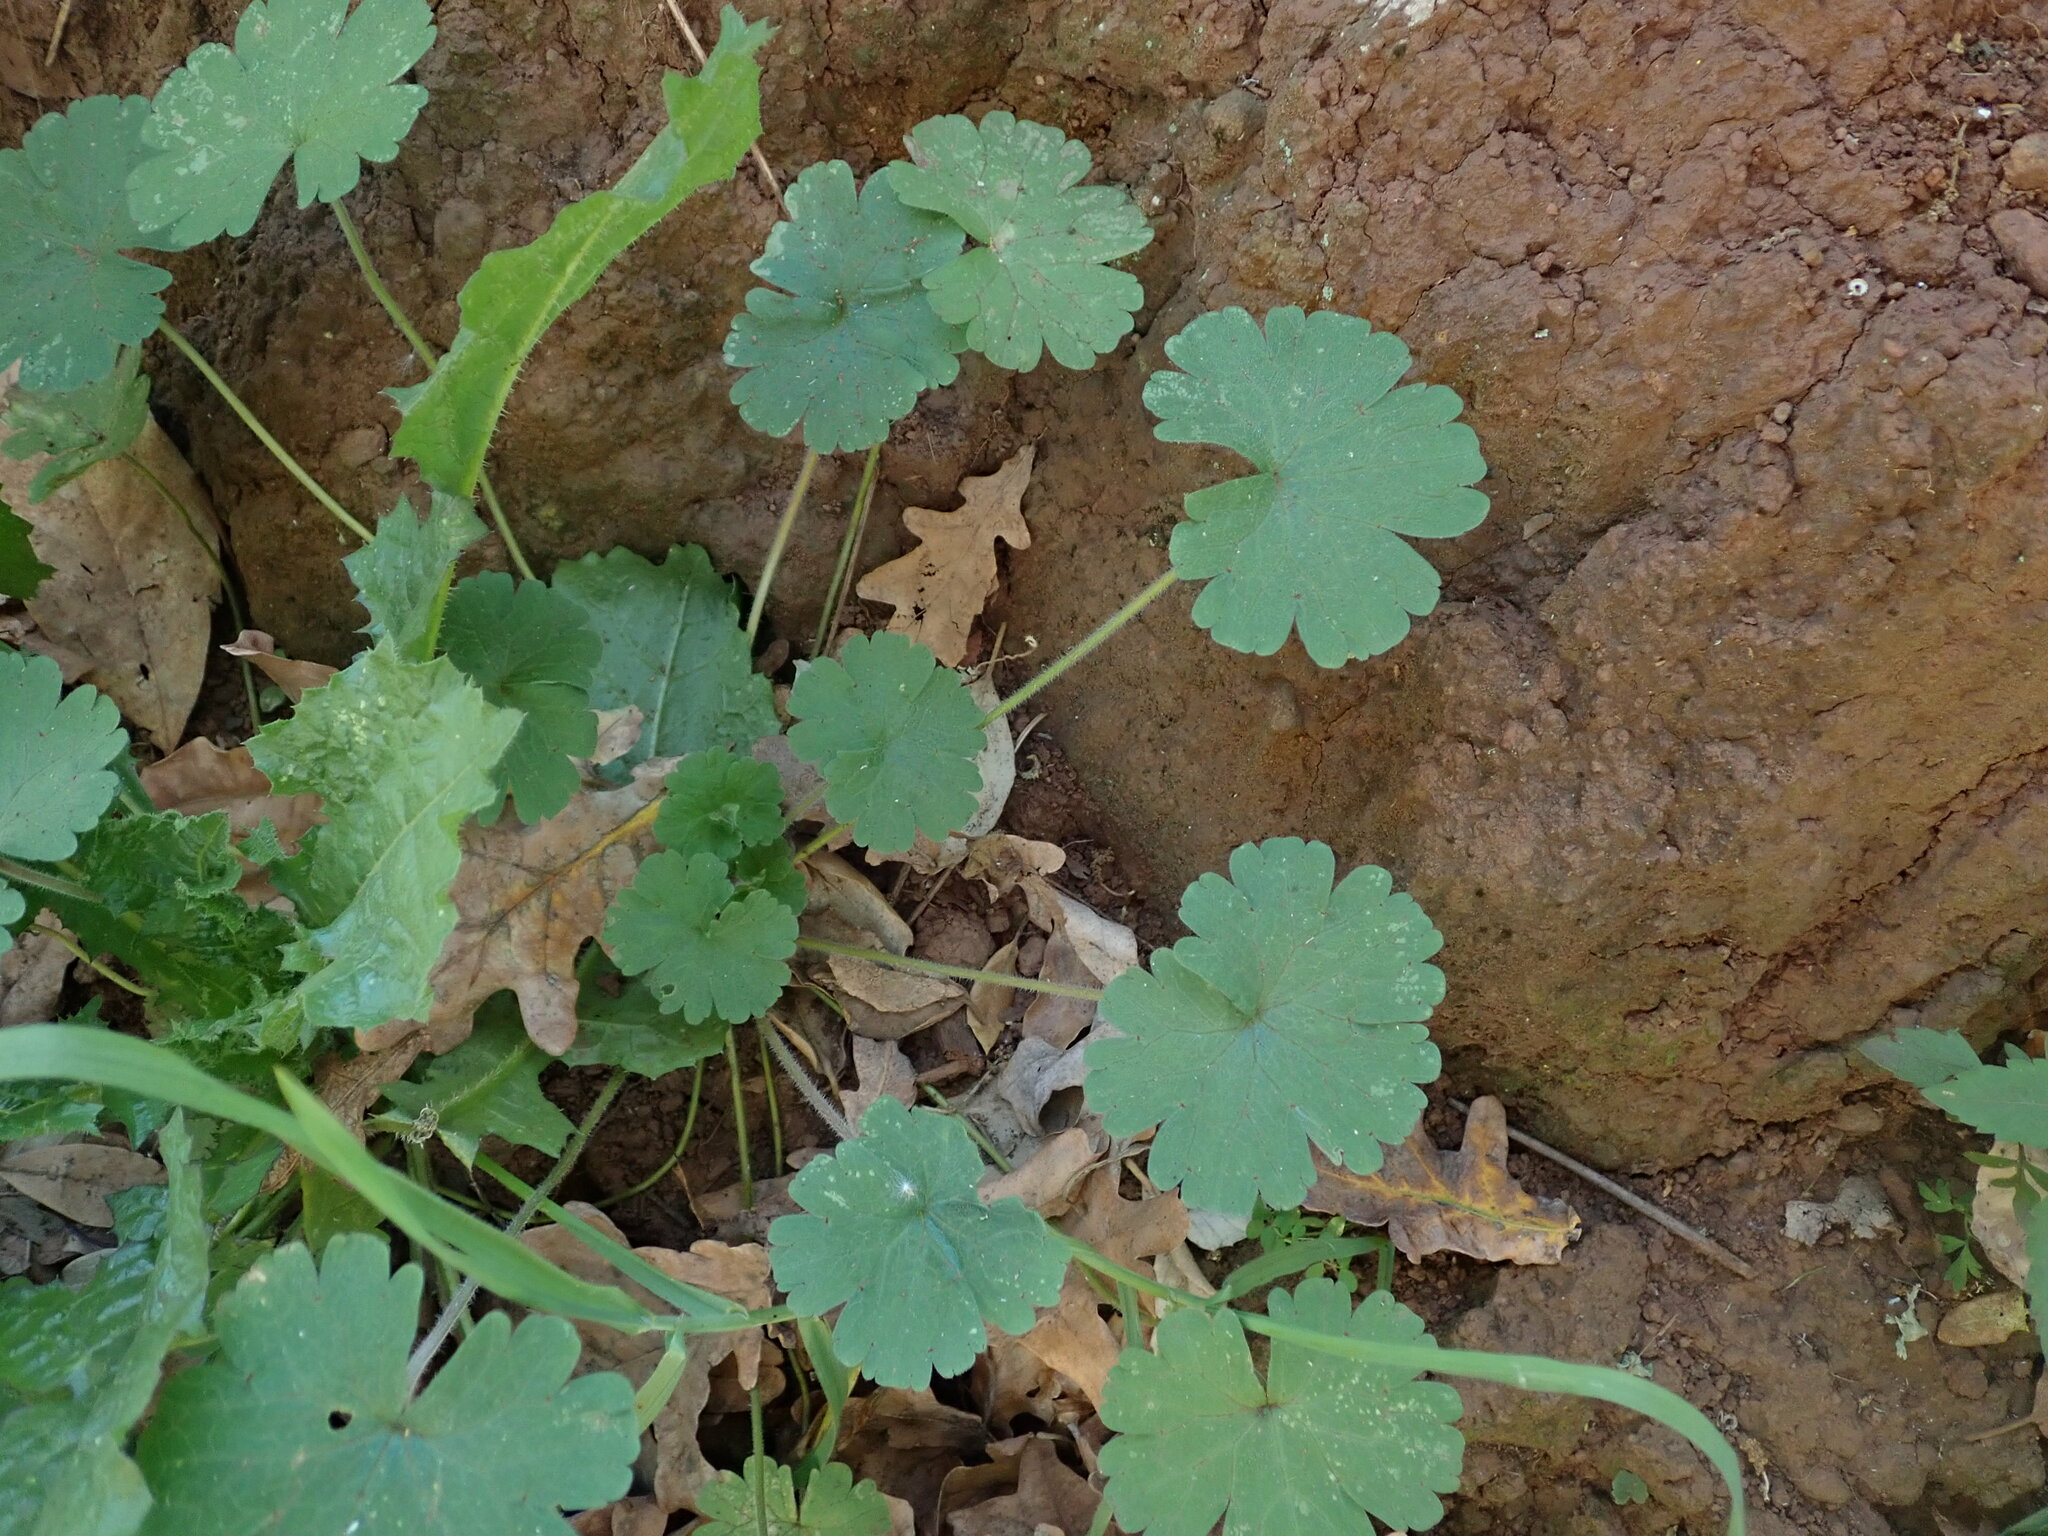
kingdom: Plantae
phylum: Tracheophyta
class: Magnoliopsida
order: Geraniales
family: Geraniaceae
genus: Geranium
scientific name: Geranium rotundifolium
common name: Round-leaved crane's-bill
